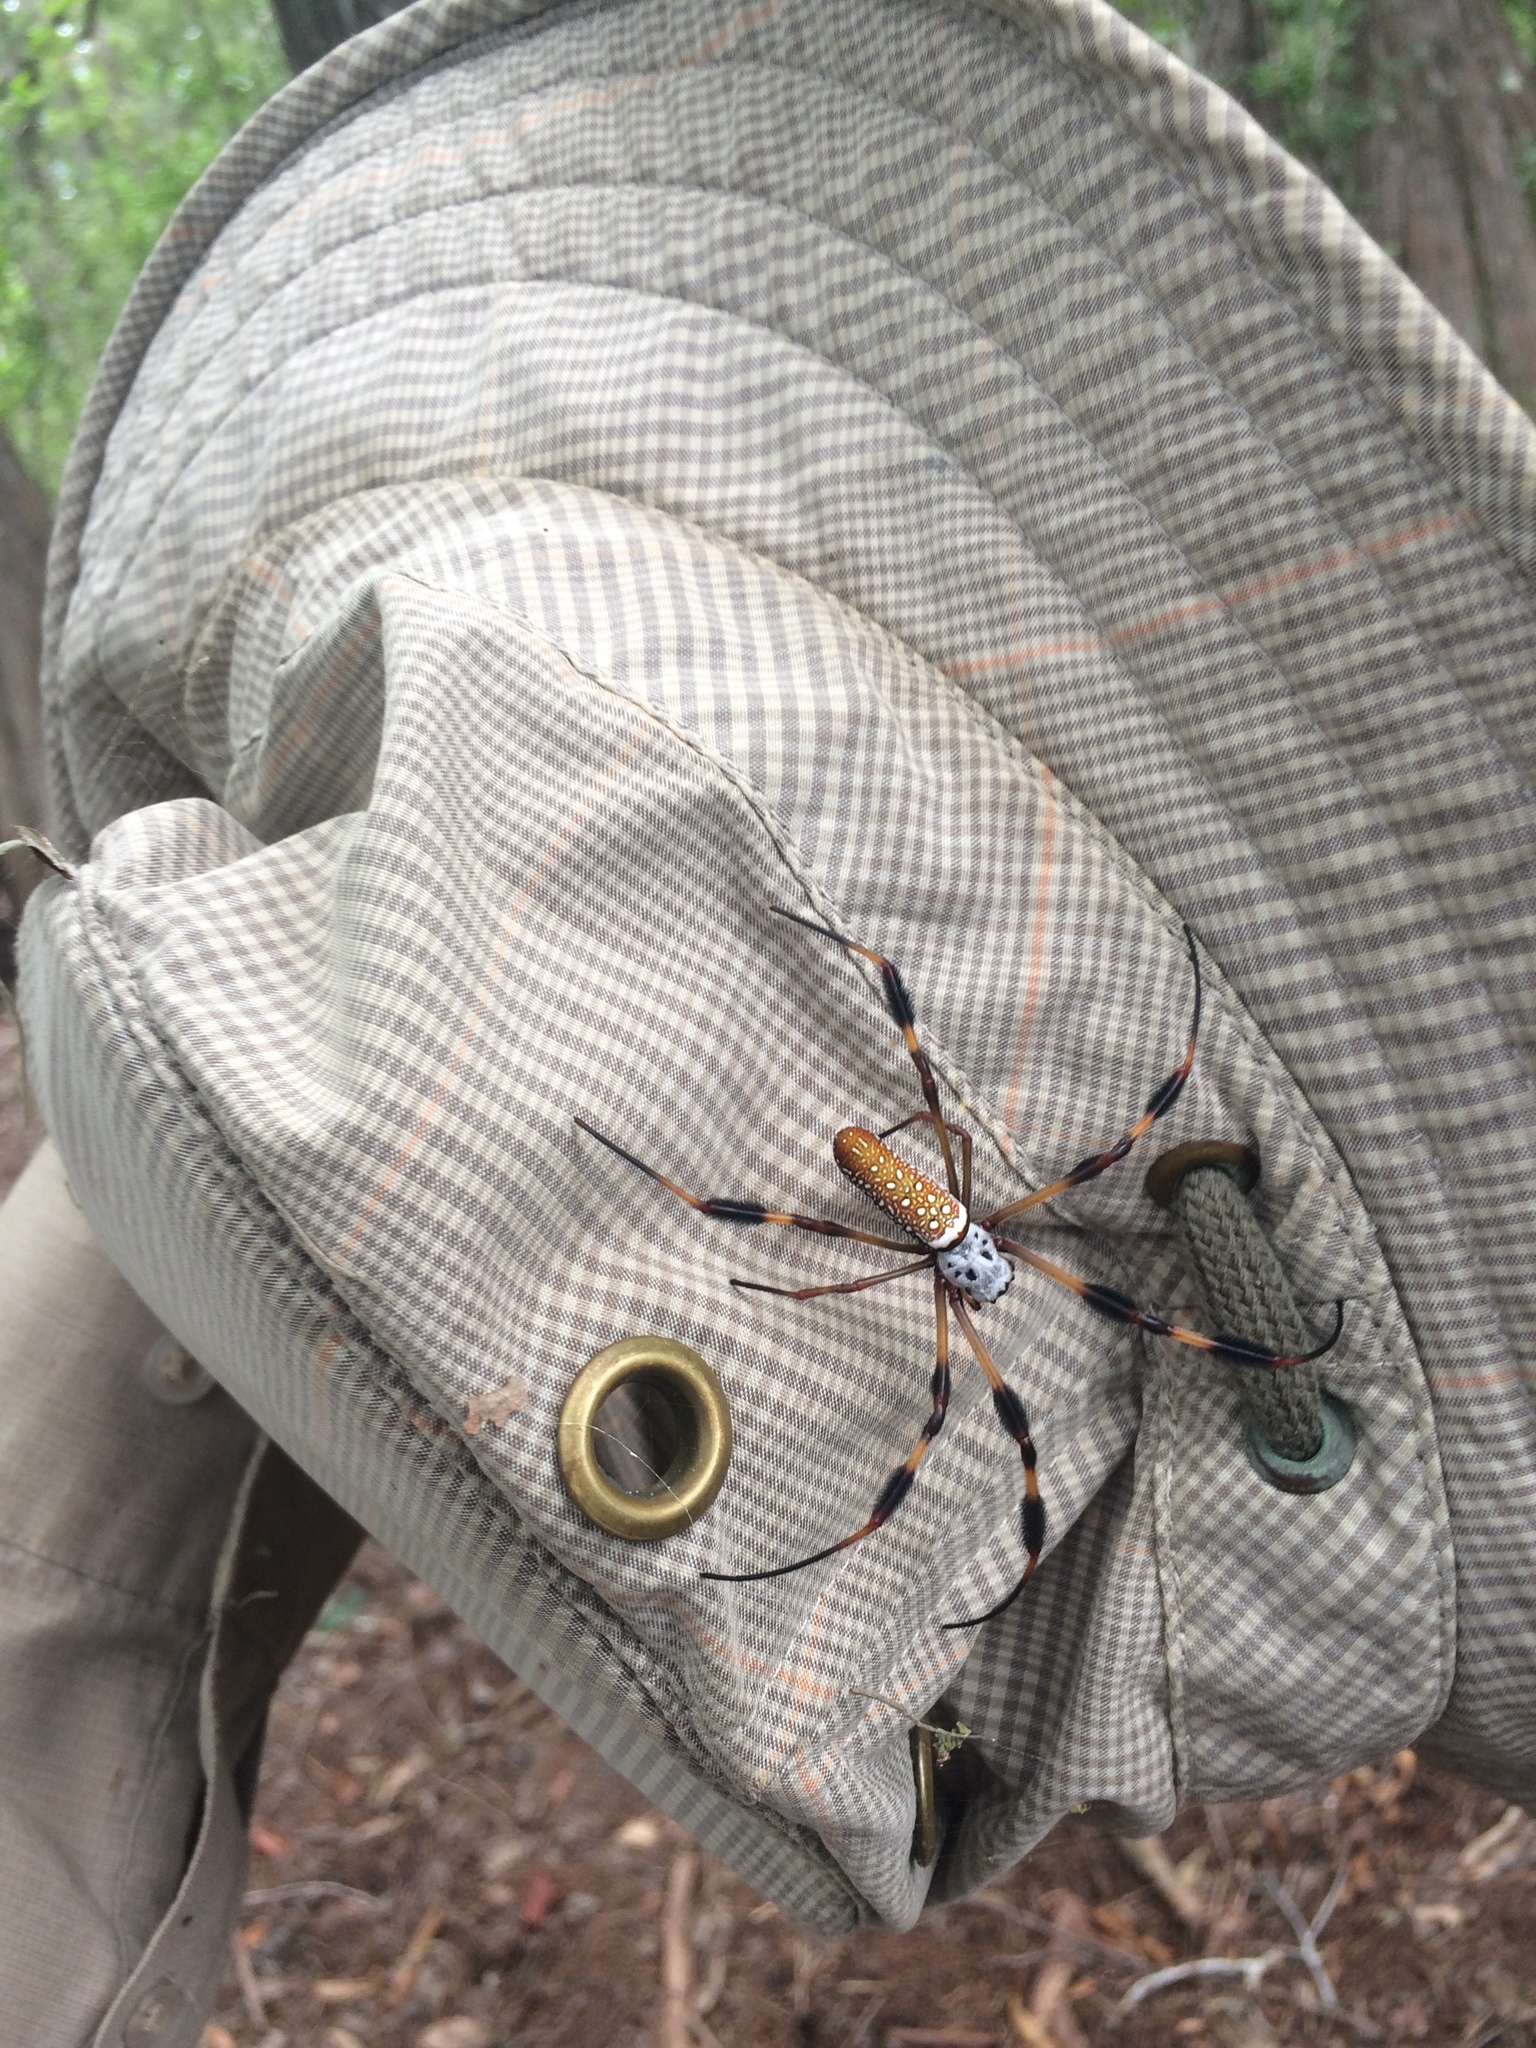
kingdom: Animalia
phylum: Arthropoda
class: Arachnida
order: Araneae
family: Araneidae
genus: Trichonephila
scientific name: Trichonephila clavipes
